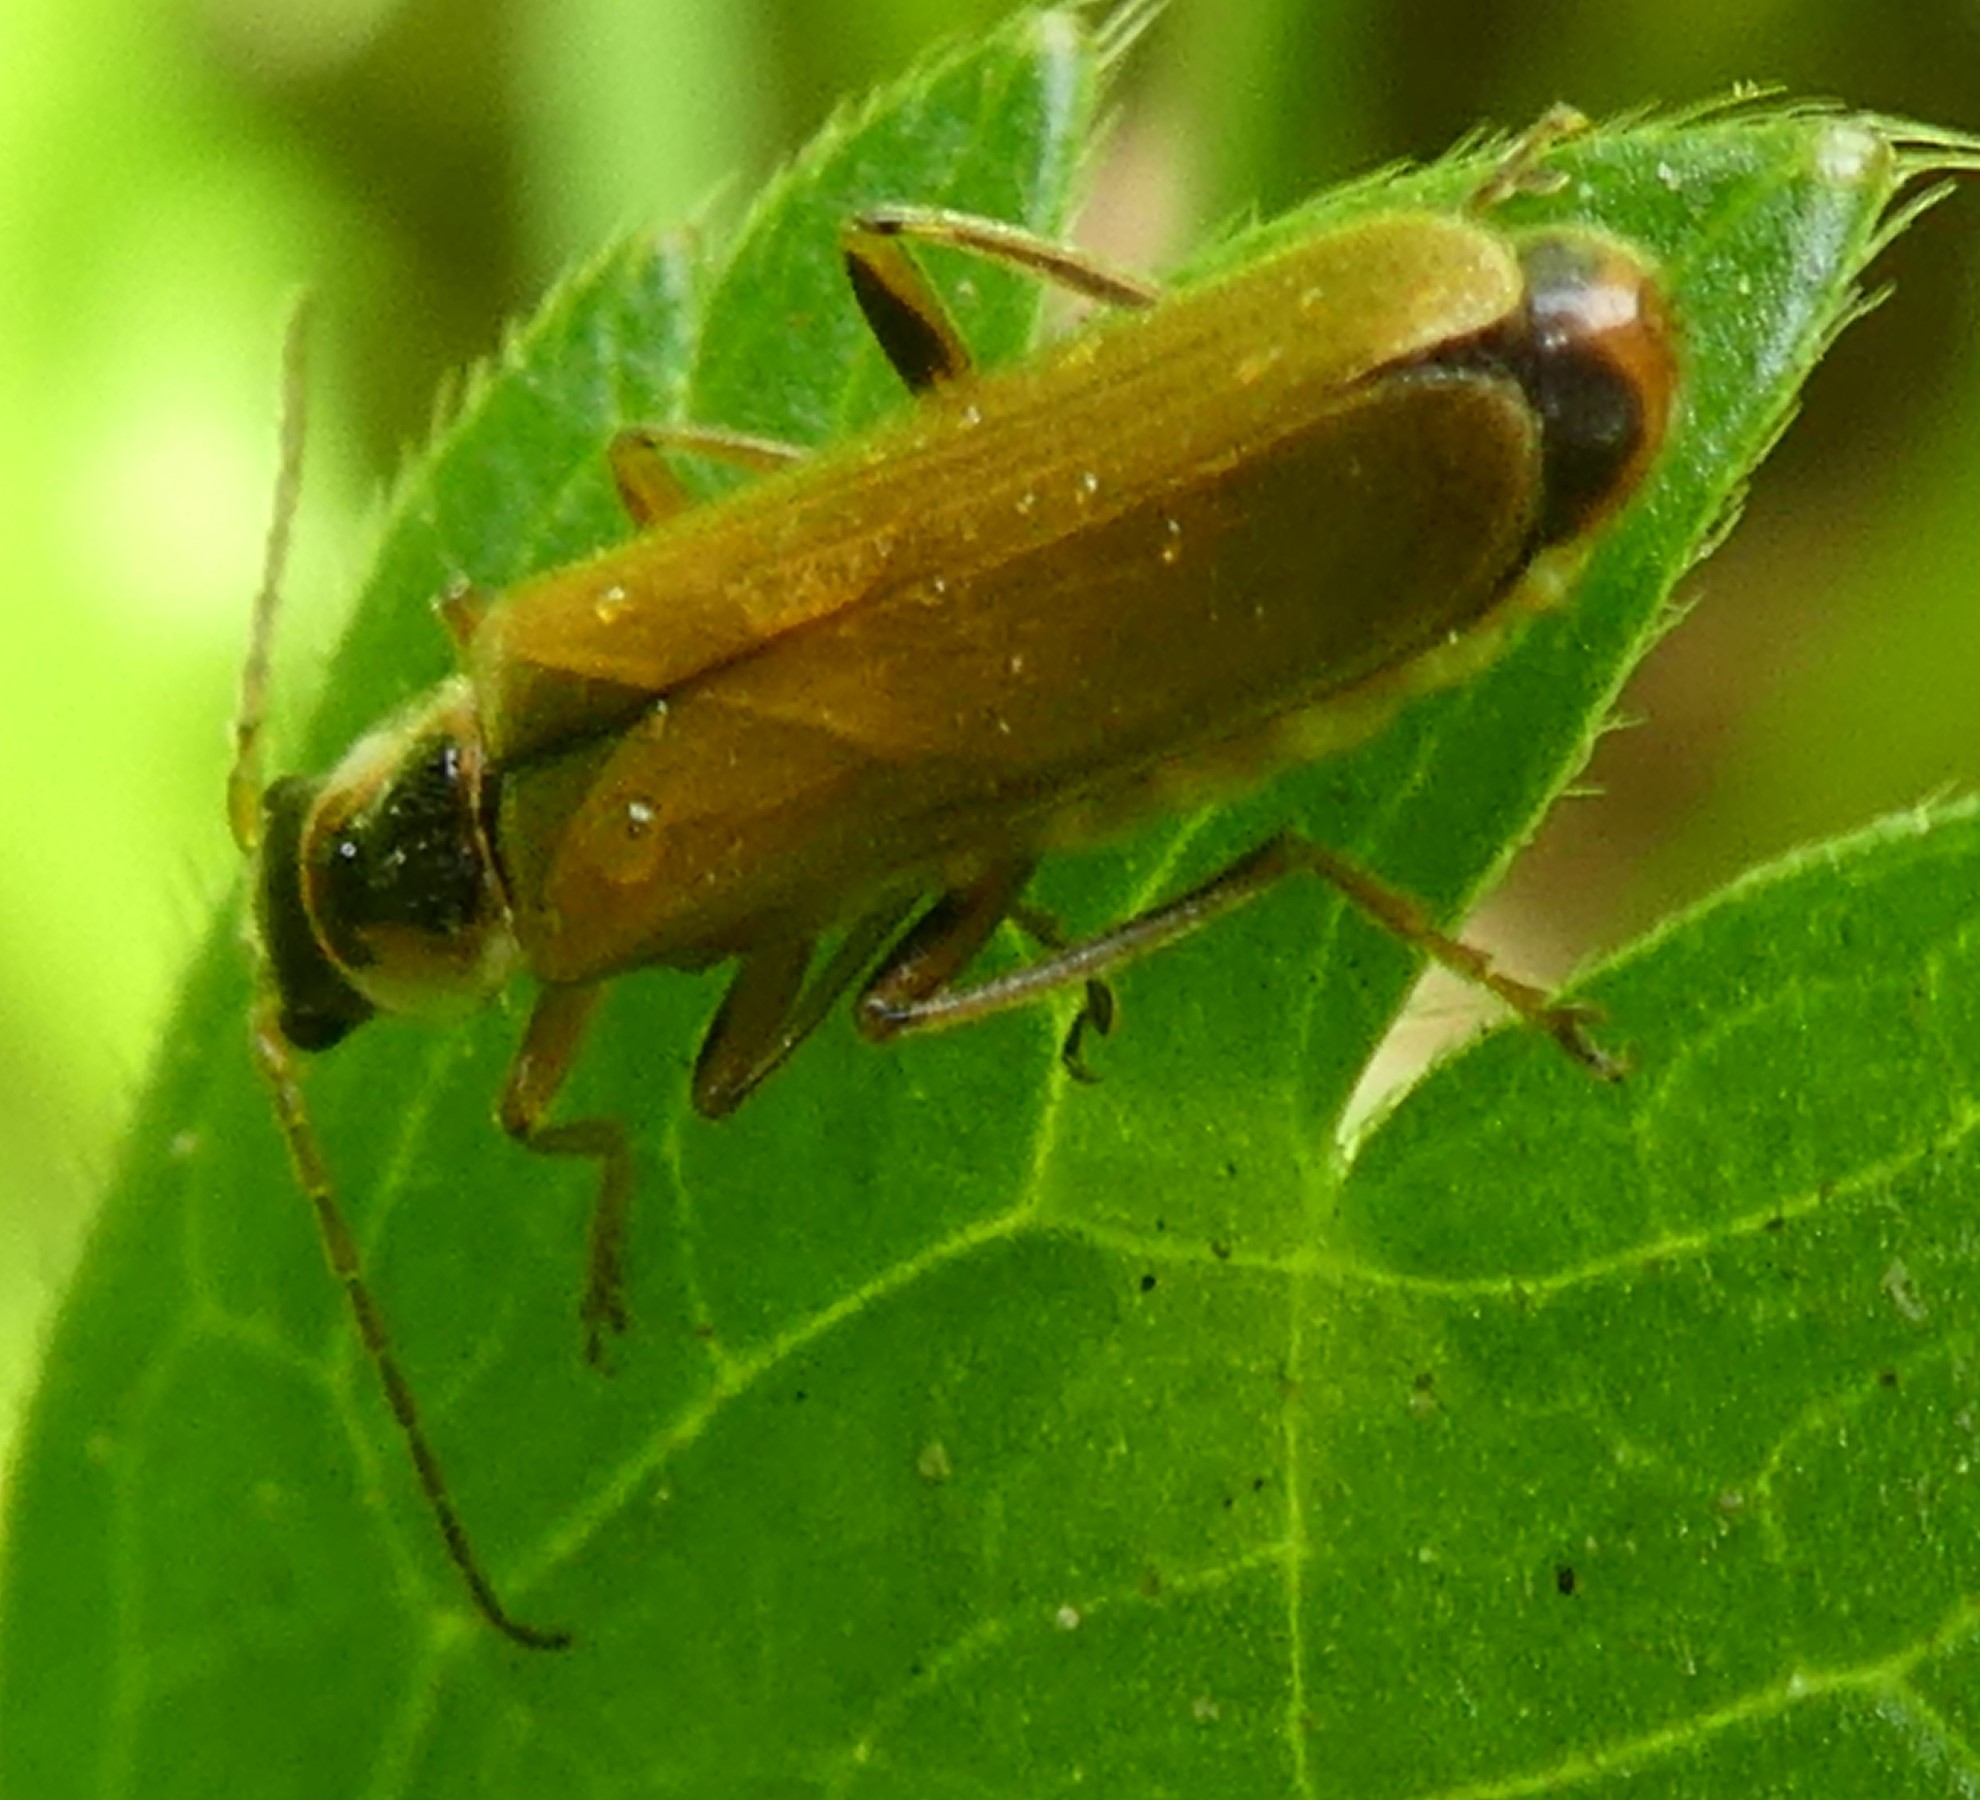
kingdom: Animalia
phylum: Arthropoda
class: Insecta
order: Coleoptera
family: Cantharidae
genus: Cantharis
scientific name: Cantharis decipiens
